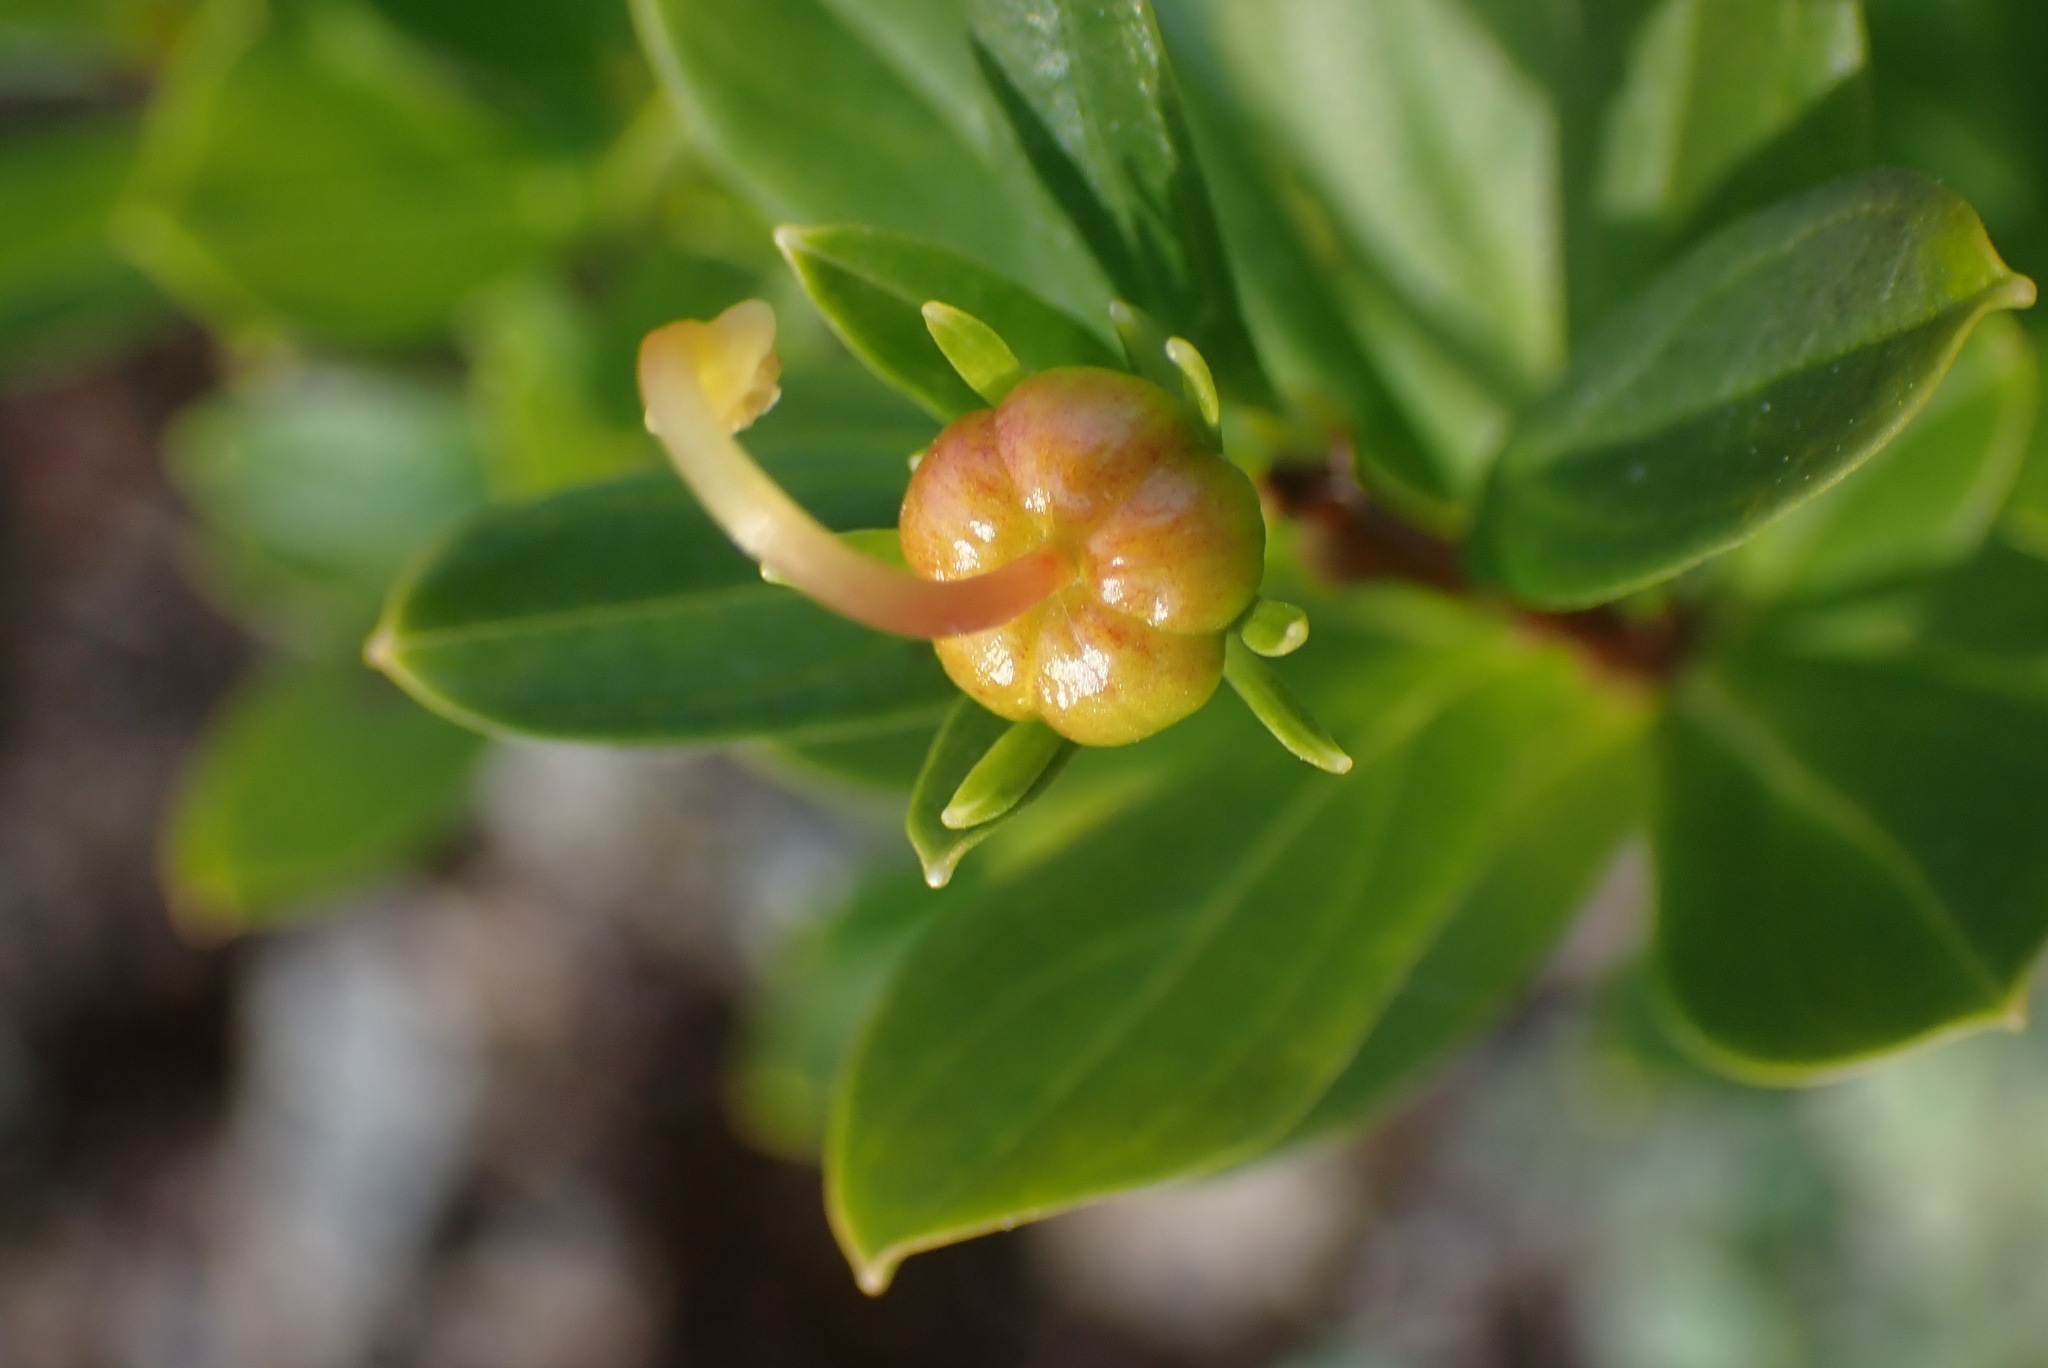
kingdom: Plantae
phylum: Tracheophyta
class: Magnoliopsida
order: Ericales
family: Ericaceae
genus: Elliottia
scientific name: Elliottia pyroliflora
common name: Copperbush
